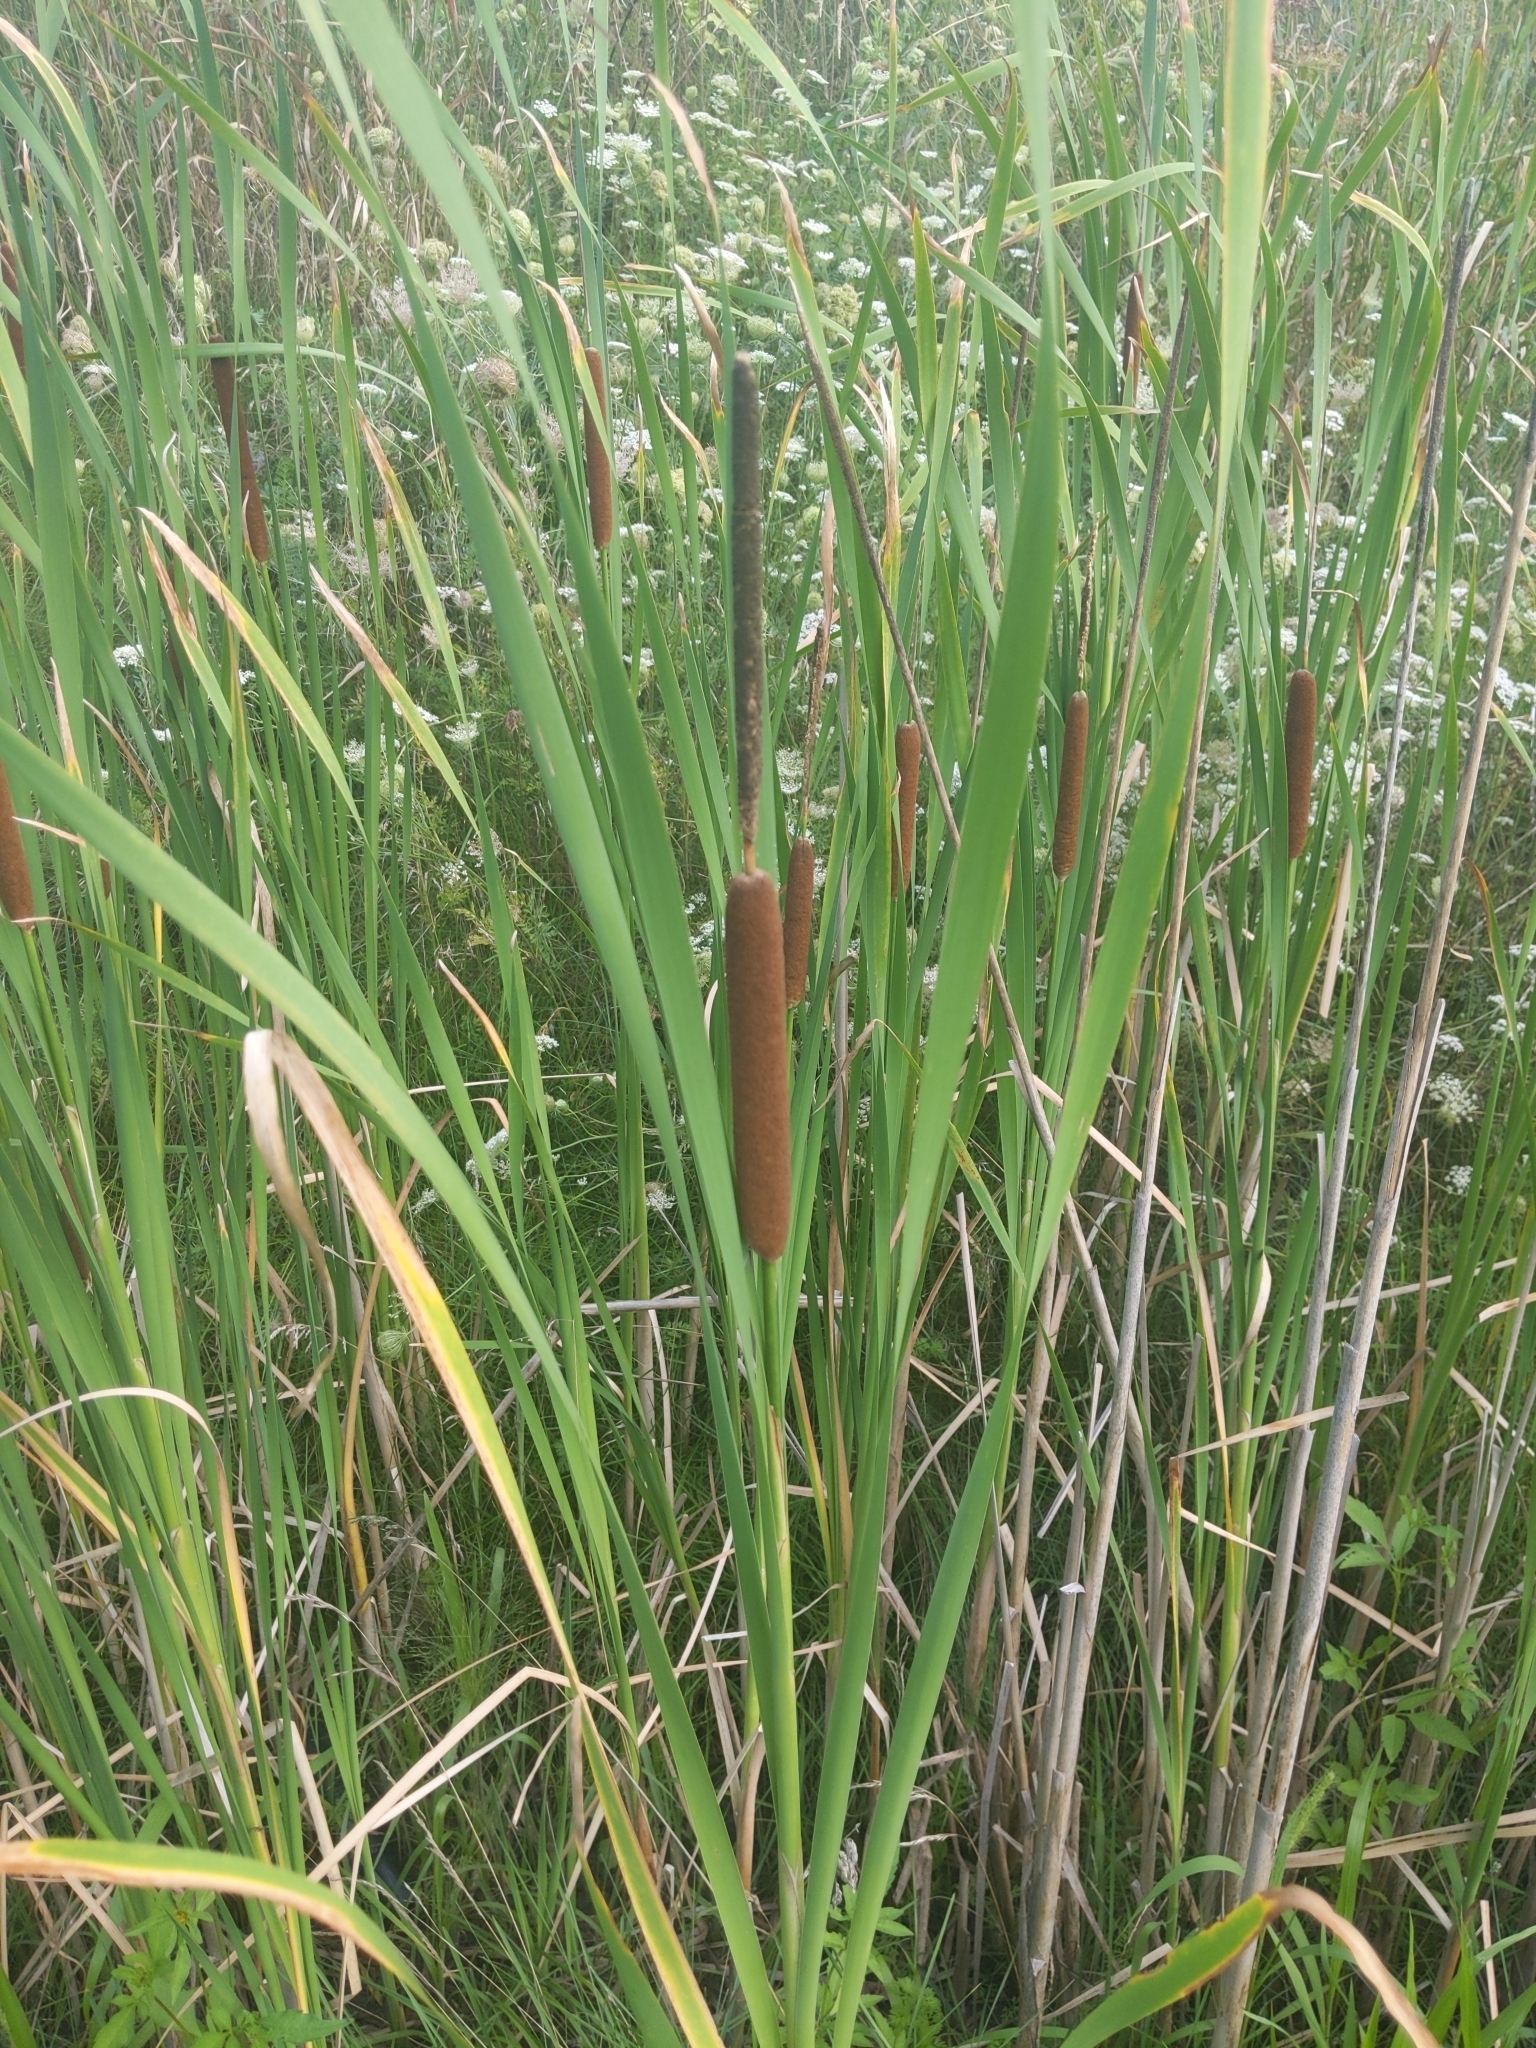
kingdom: Plantae
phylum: Tracheophyta
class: Liliopsida
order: Poales
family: Typhaceae
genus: Typha
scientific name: Typha angustifolia
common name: Lesser bulrush
